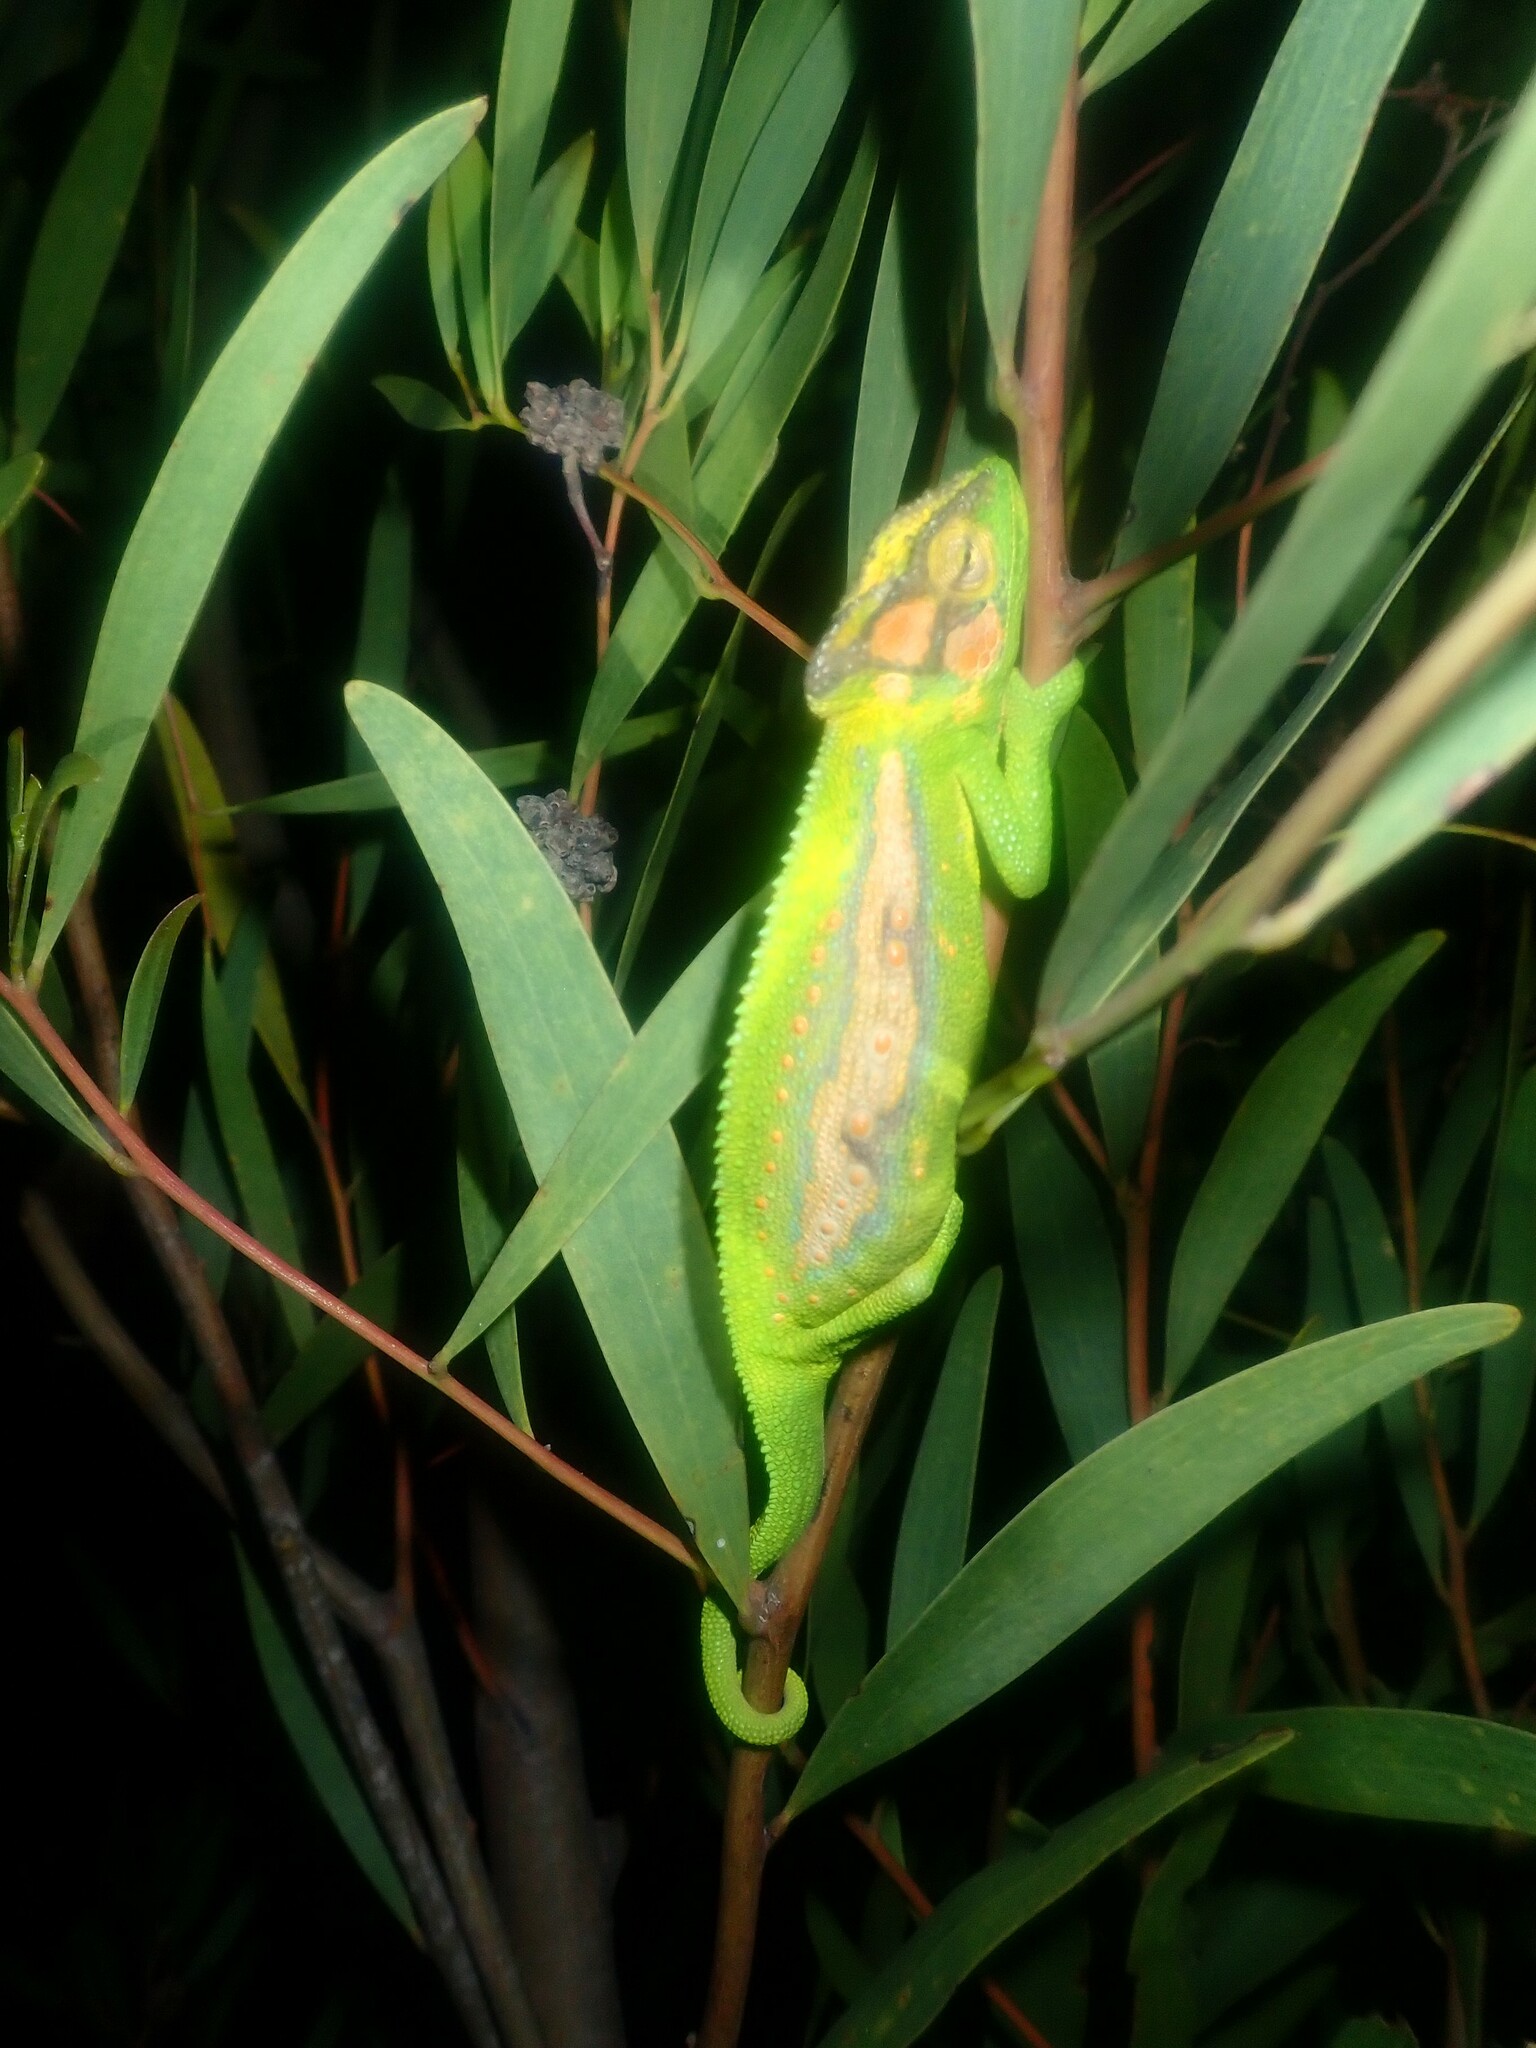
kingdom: Animalia
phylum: Chordata
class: Squamata
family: Chamaeleonidae
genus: Bradypodion
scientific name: Bradypodion pumilum
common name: Cape dwarf chameleon
